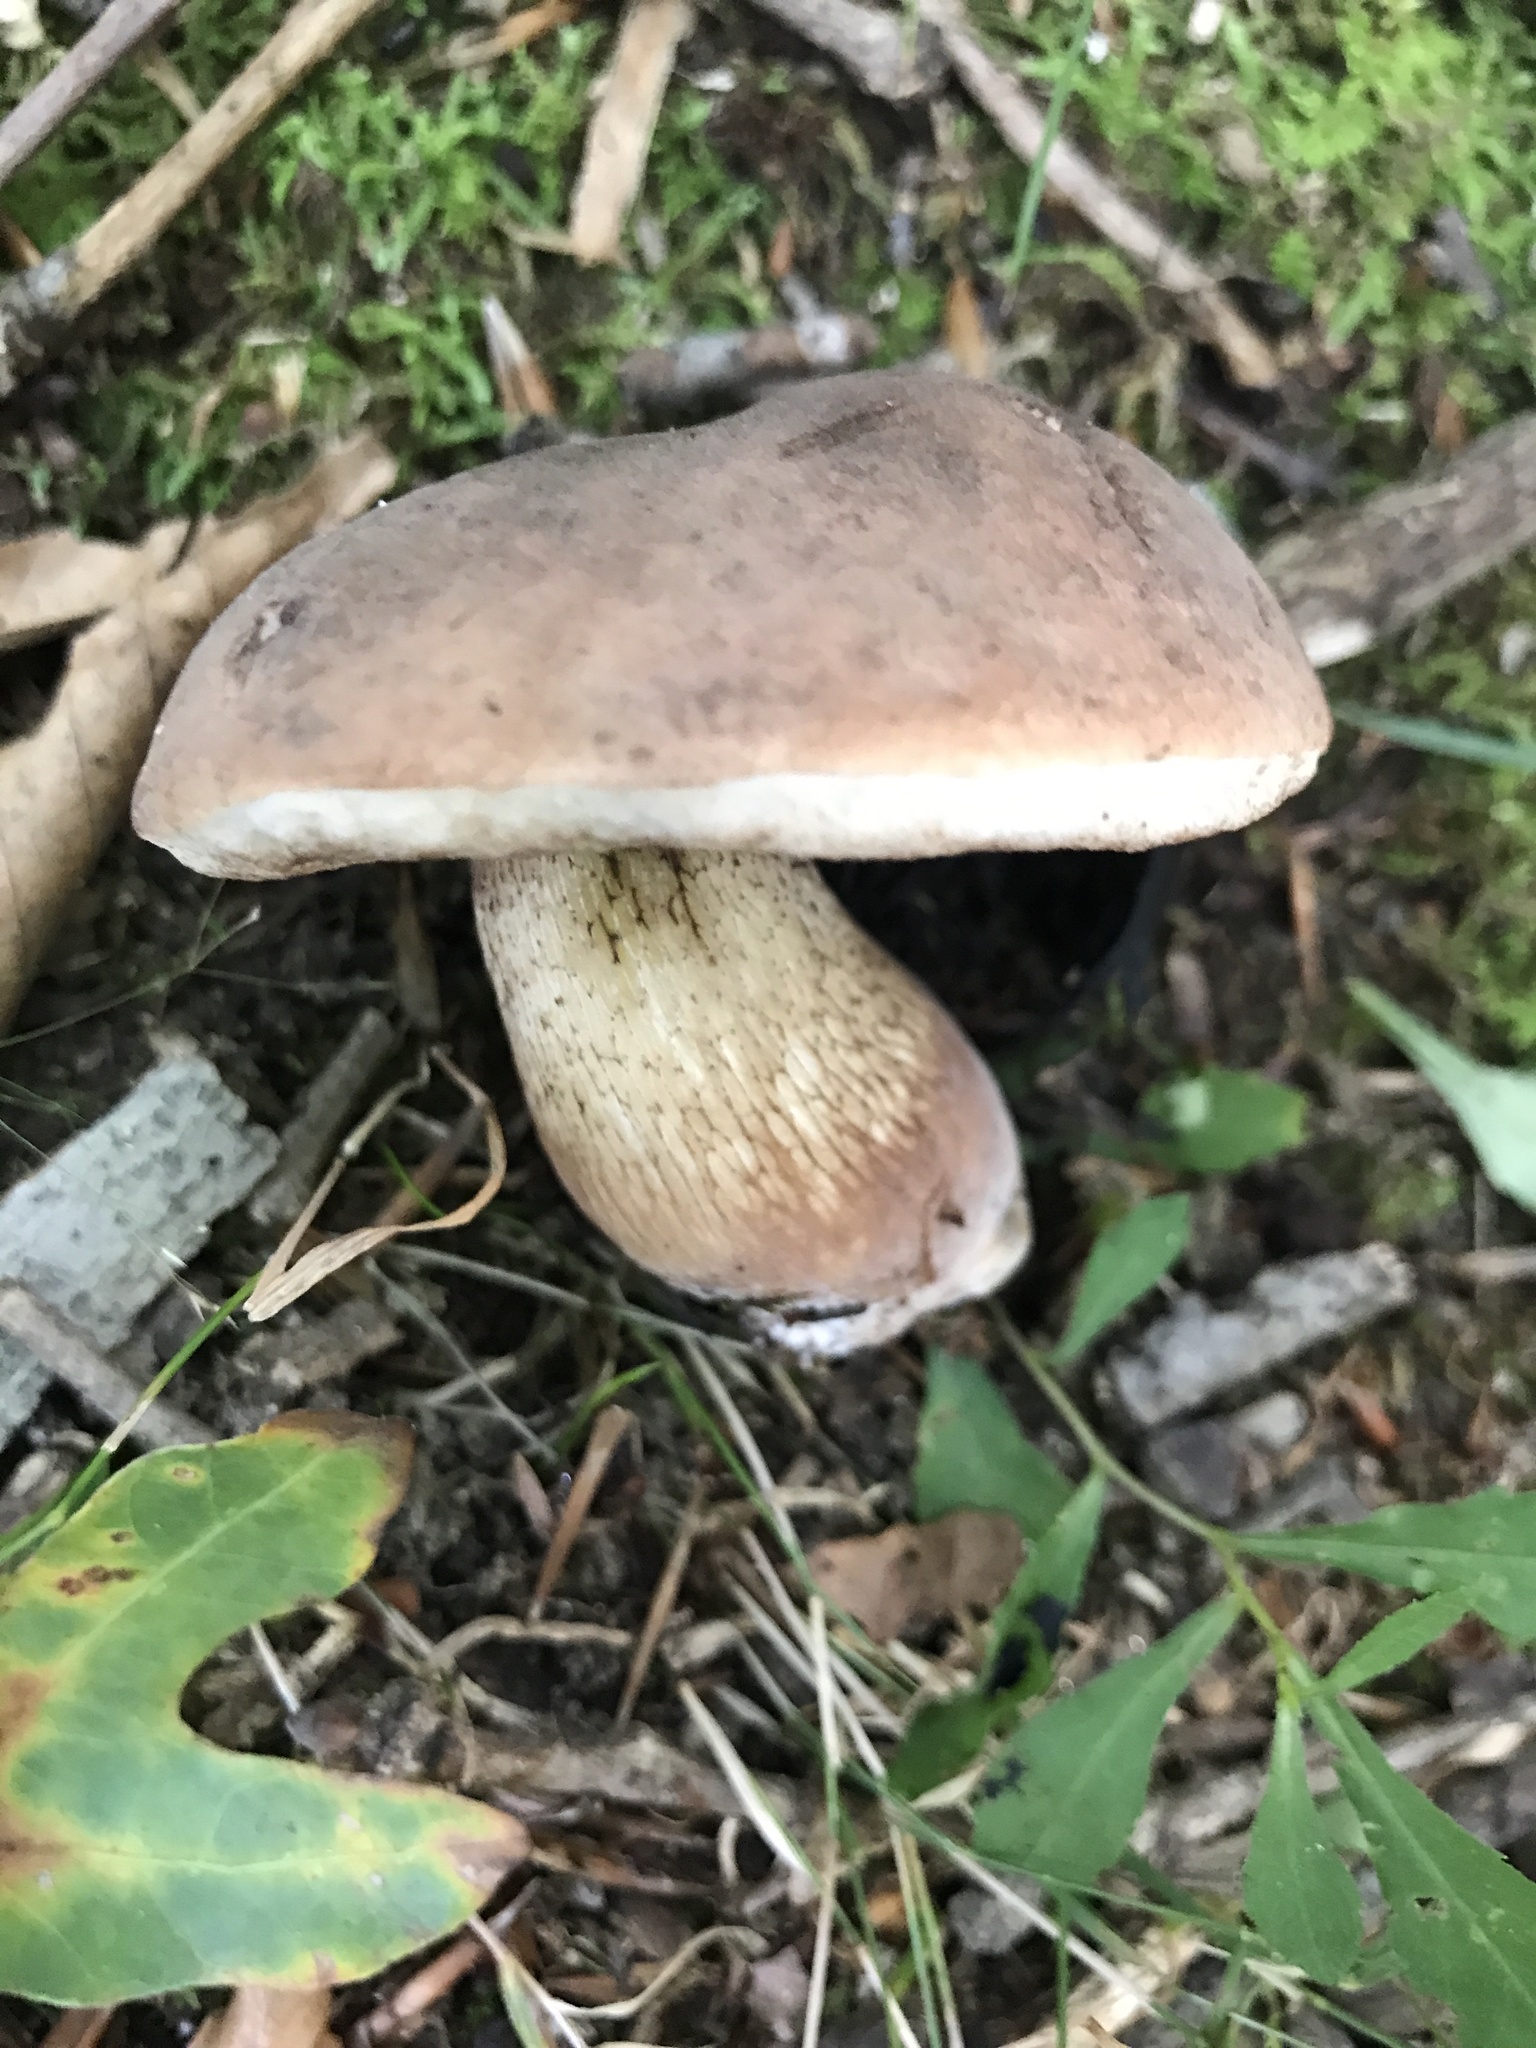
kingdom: Fungi
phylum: Basidiomycota
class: Agaricomycetes
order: Boletales
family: Boletaceae
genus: Tylopilus
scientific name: Tylopilus variobrunneus
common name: Brown-net bolete
